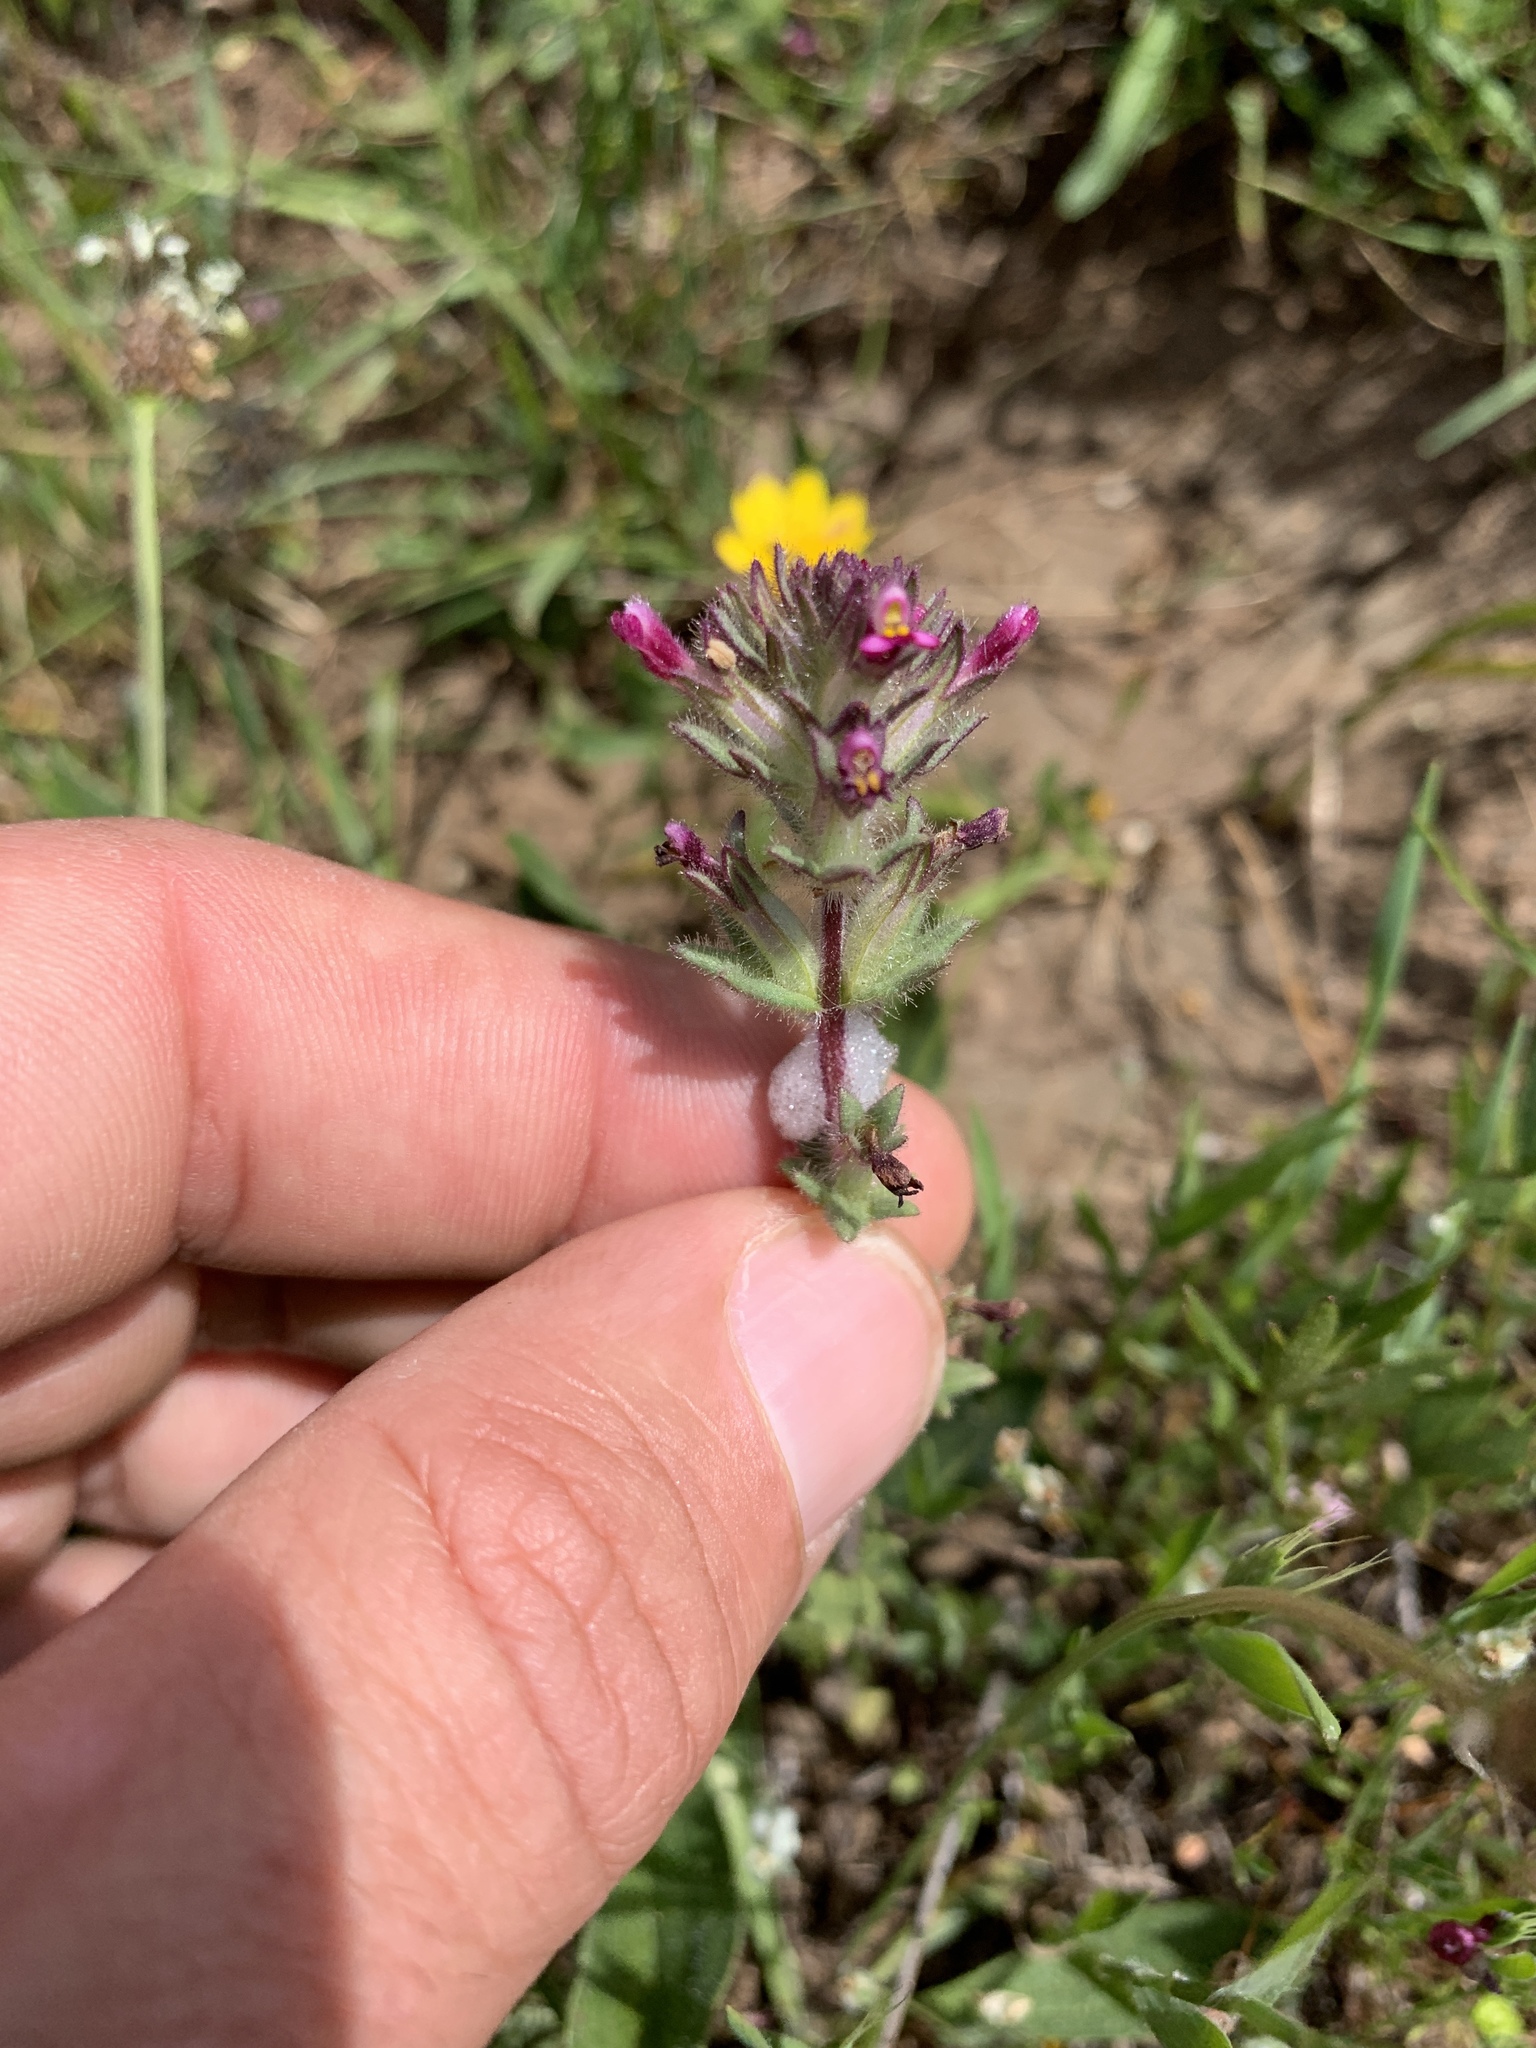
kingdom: Plantae
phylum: Tracheophyta
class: Magnoliopsida
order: Lamiales
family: Orobanchaceae
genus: Parentucellia
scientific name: Parentucellia latifolia
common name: Broadleaf glandweed
